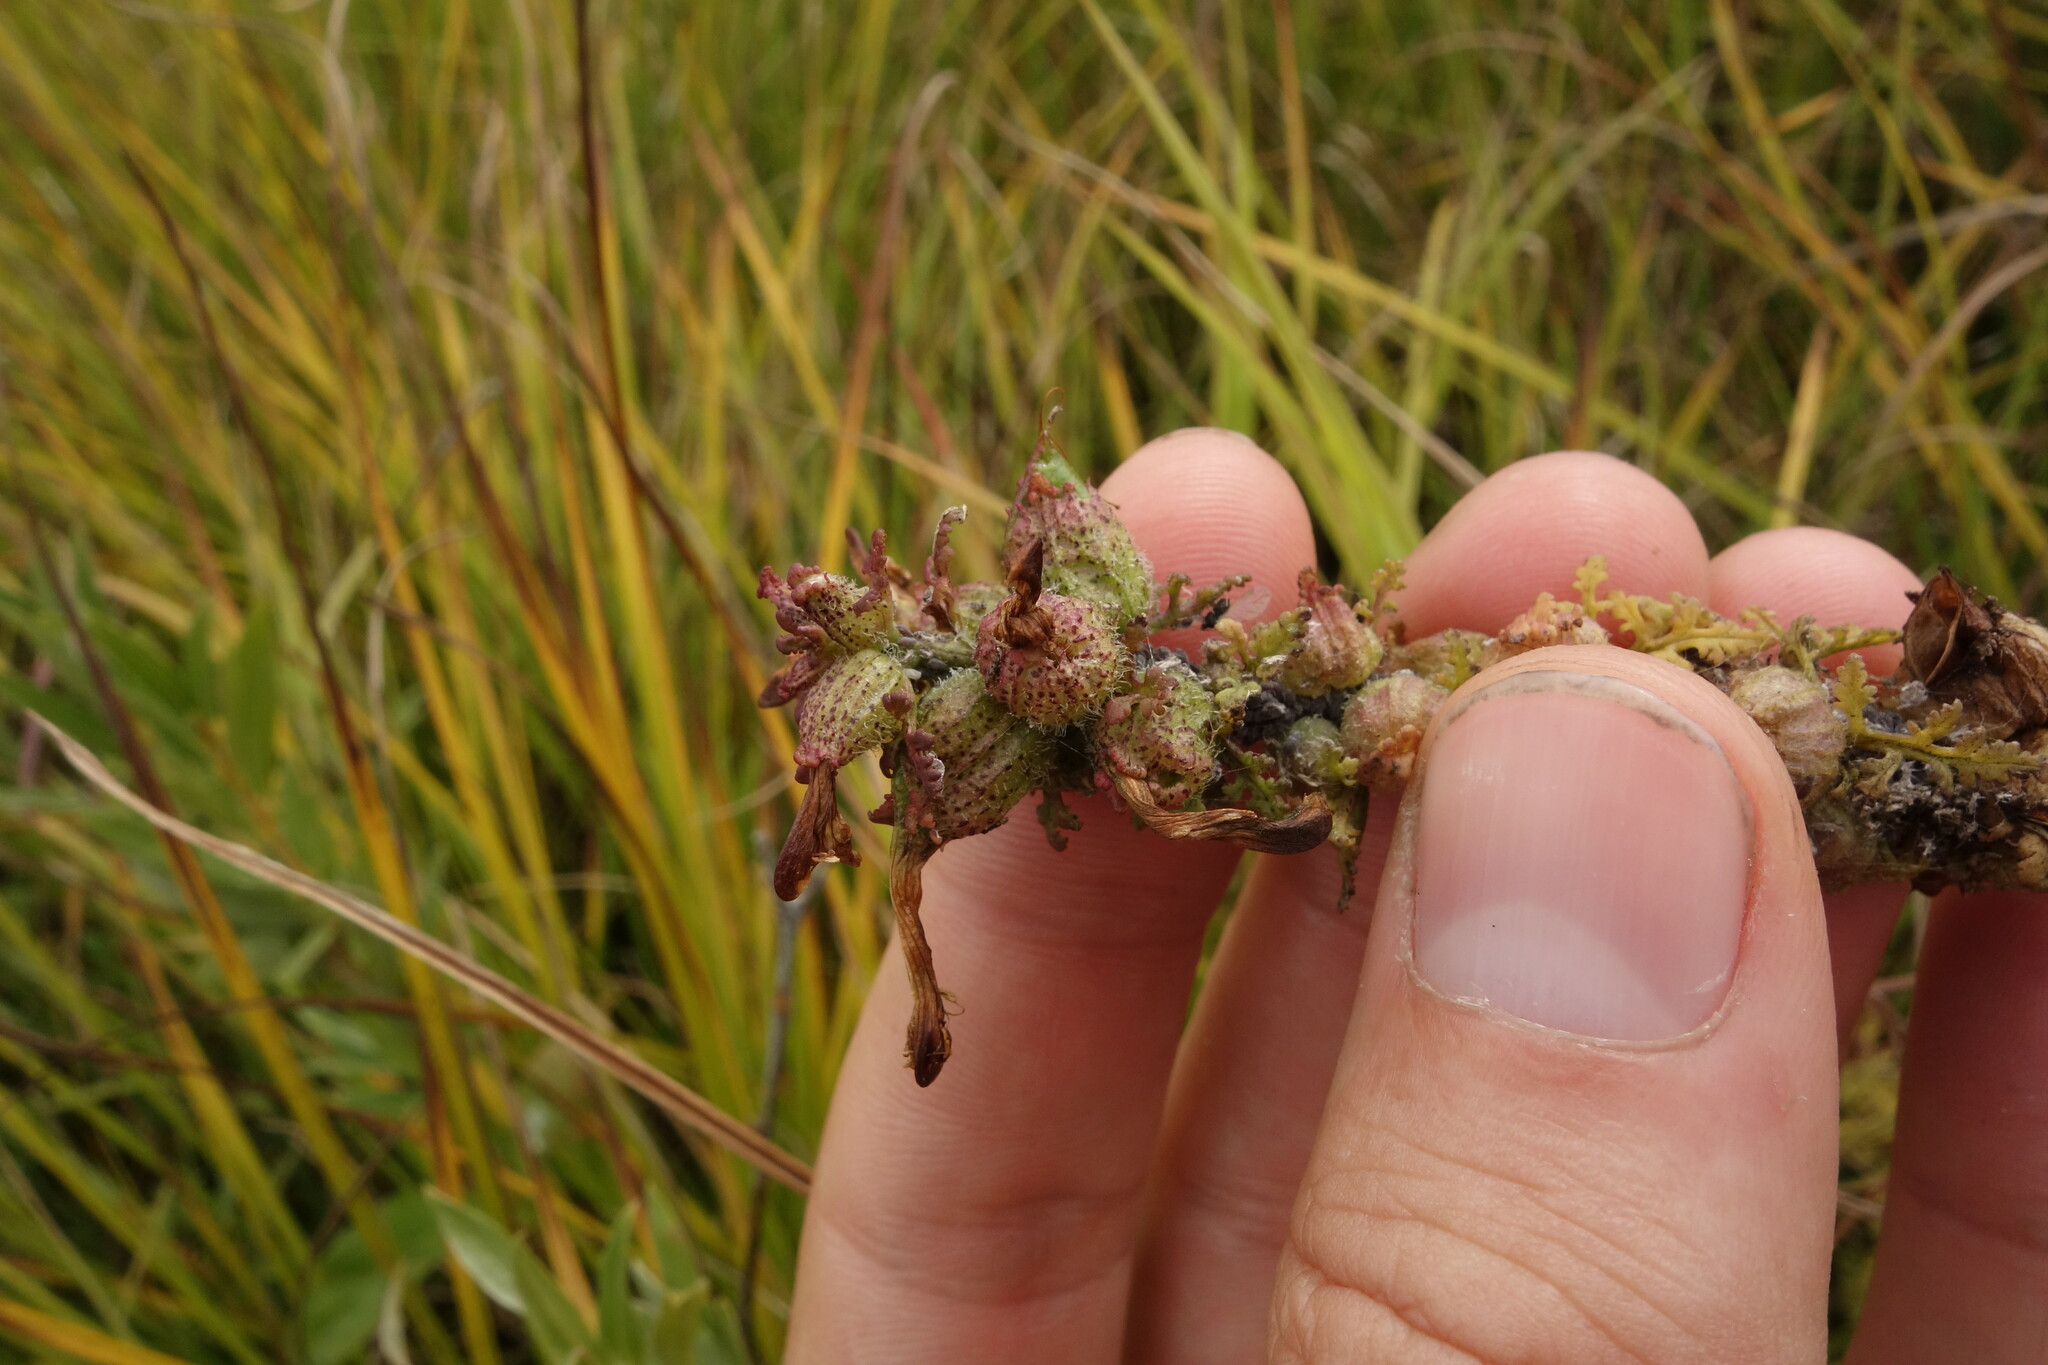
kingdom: Plantae
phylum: Tracheophyta
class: Magnoliopsida
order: Lamiales
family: Orobanchaceae
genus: Pedicularis
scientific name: Pedicularis karoi
